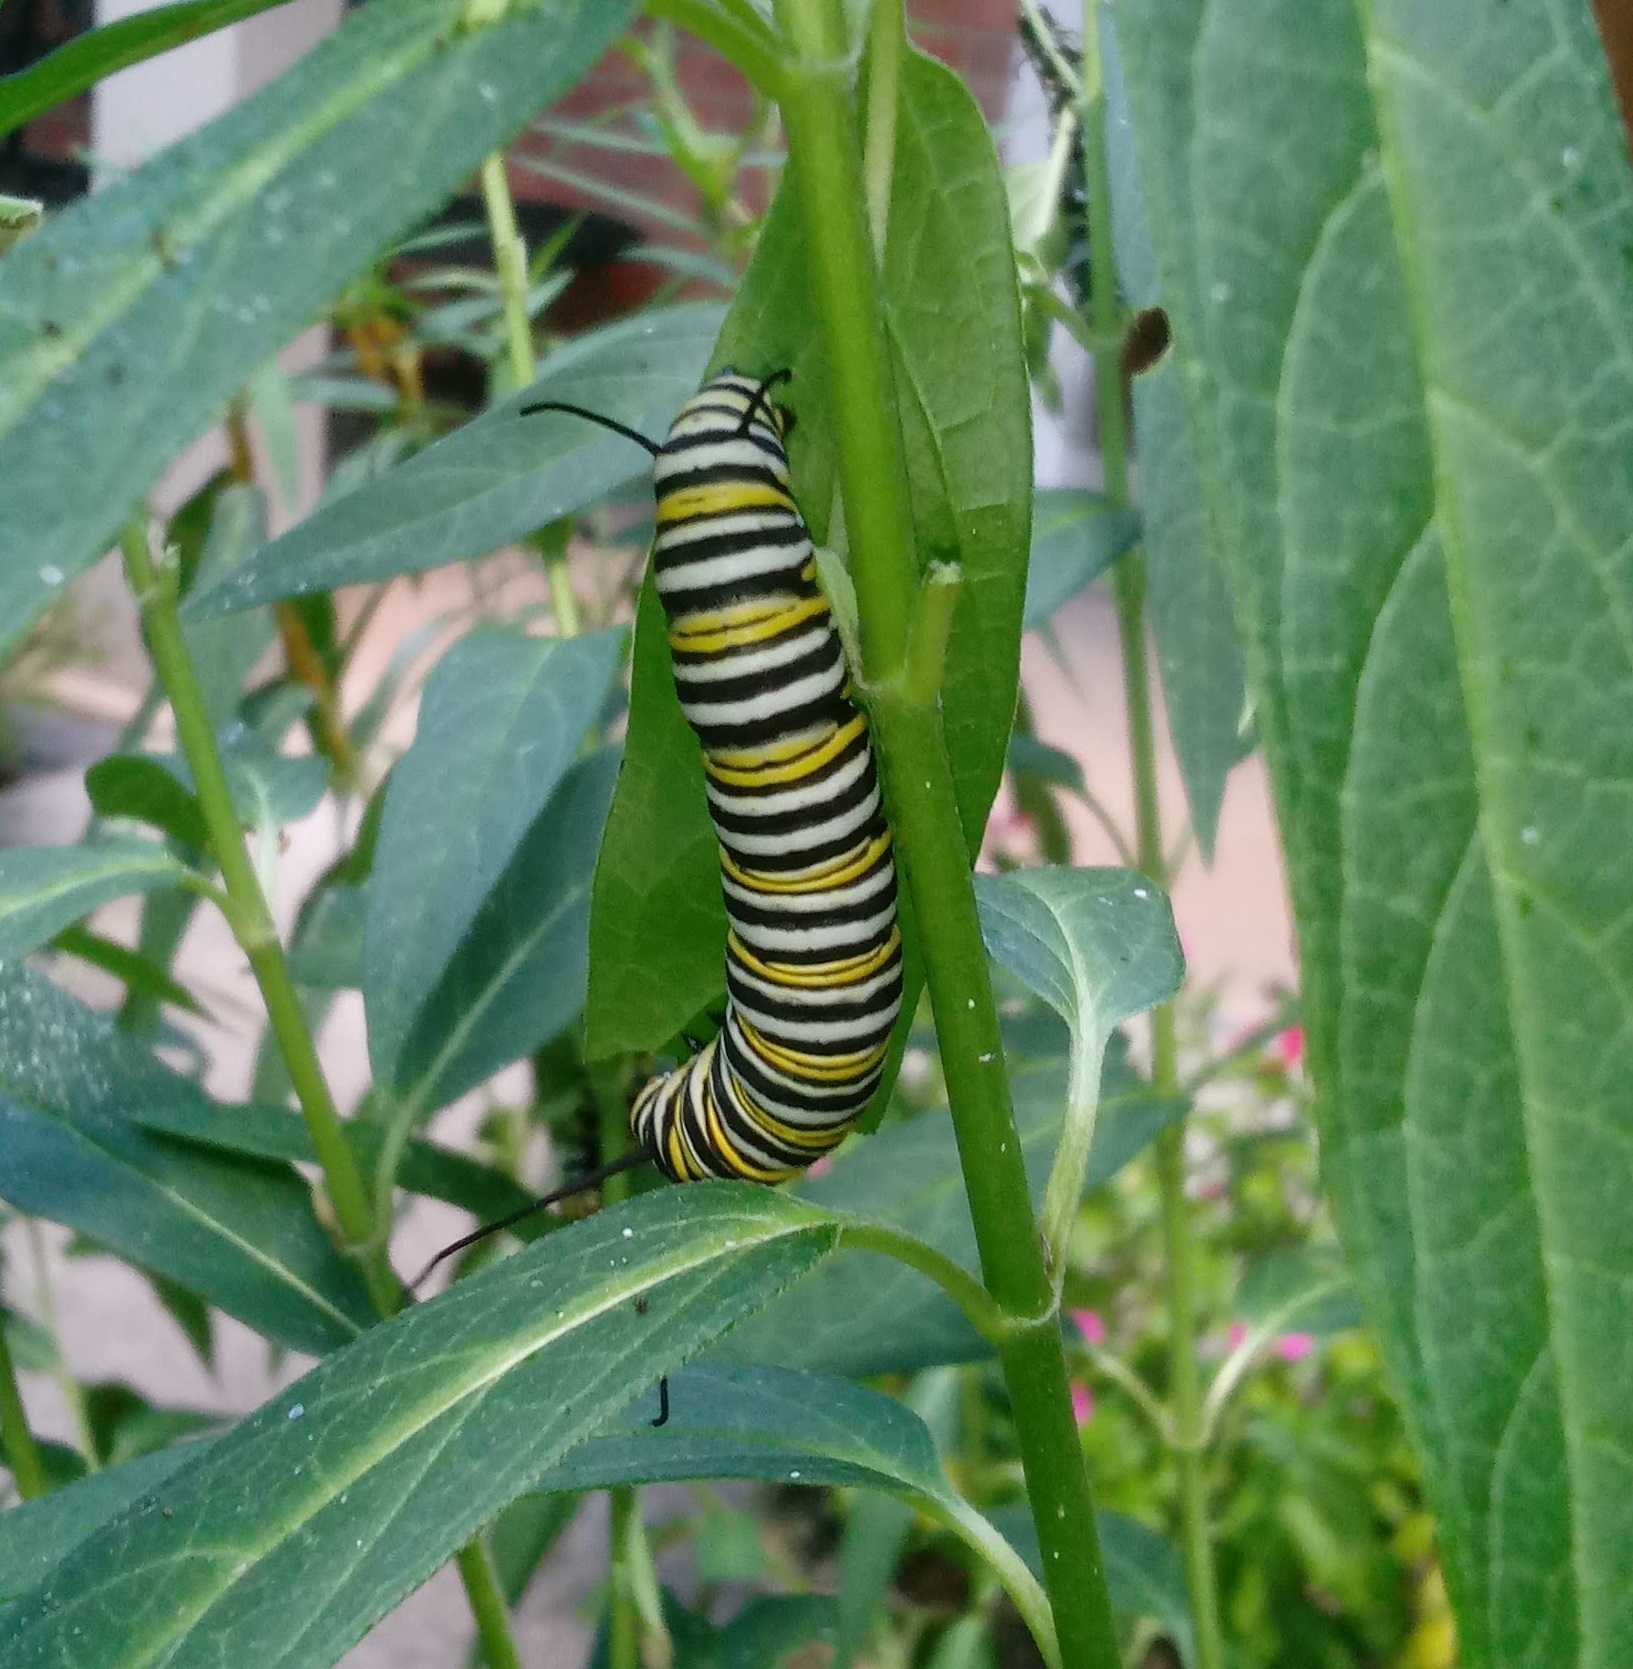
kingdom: Animalia
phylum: Arthropoda
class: Insecta
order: Lepidoptera
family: Nymphalidae
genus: Danaus
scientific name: Danaus plexippus
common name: Monarch
